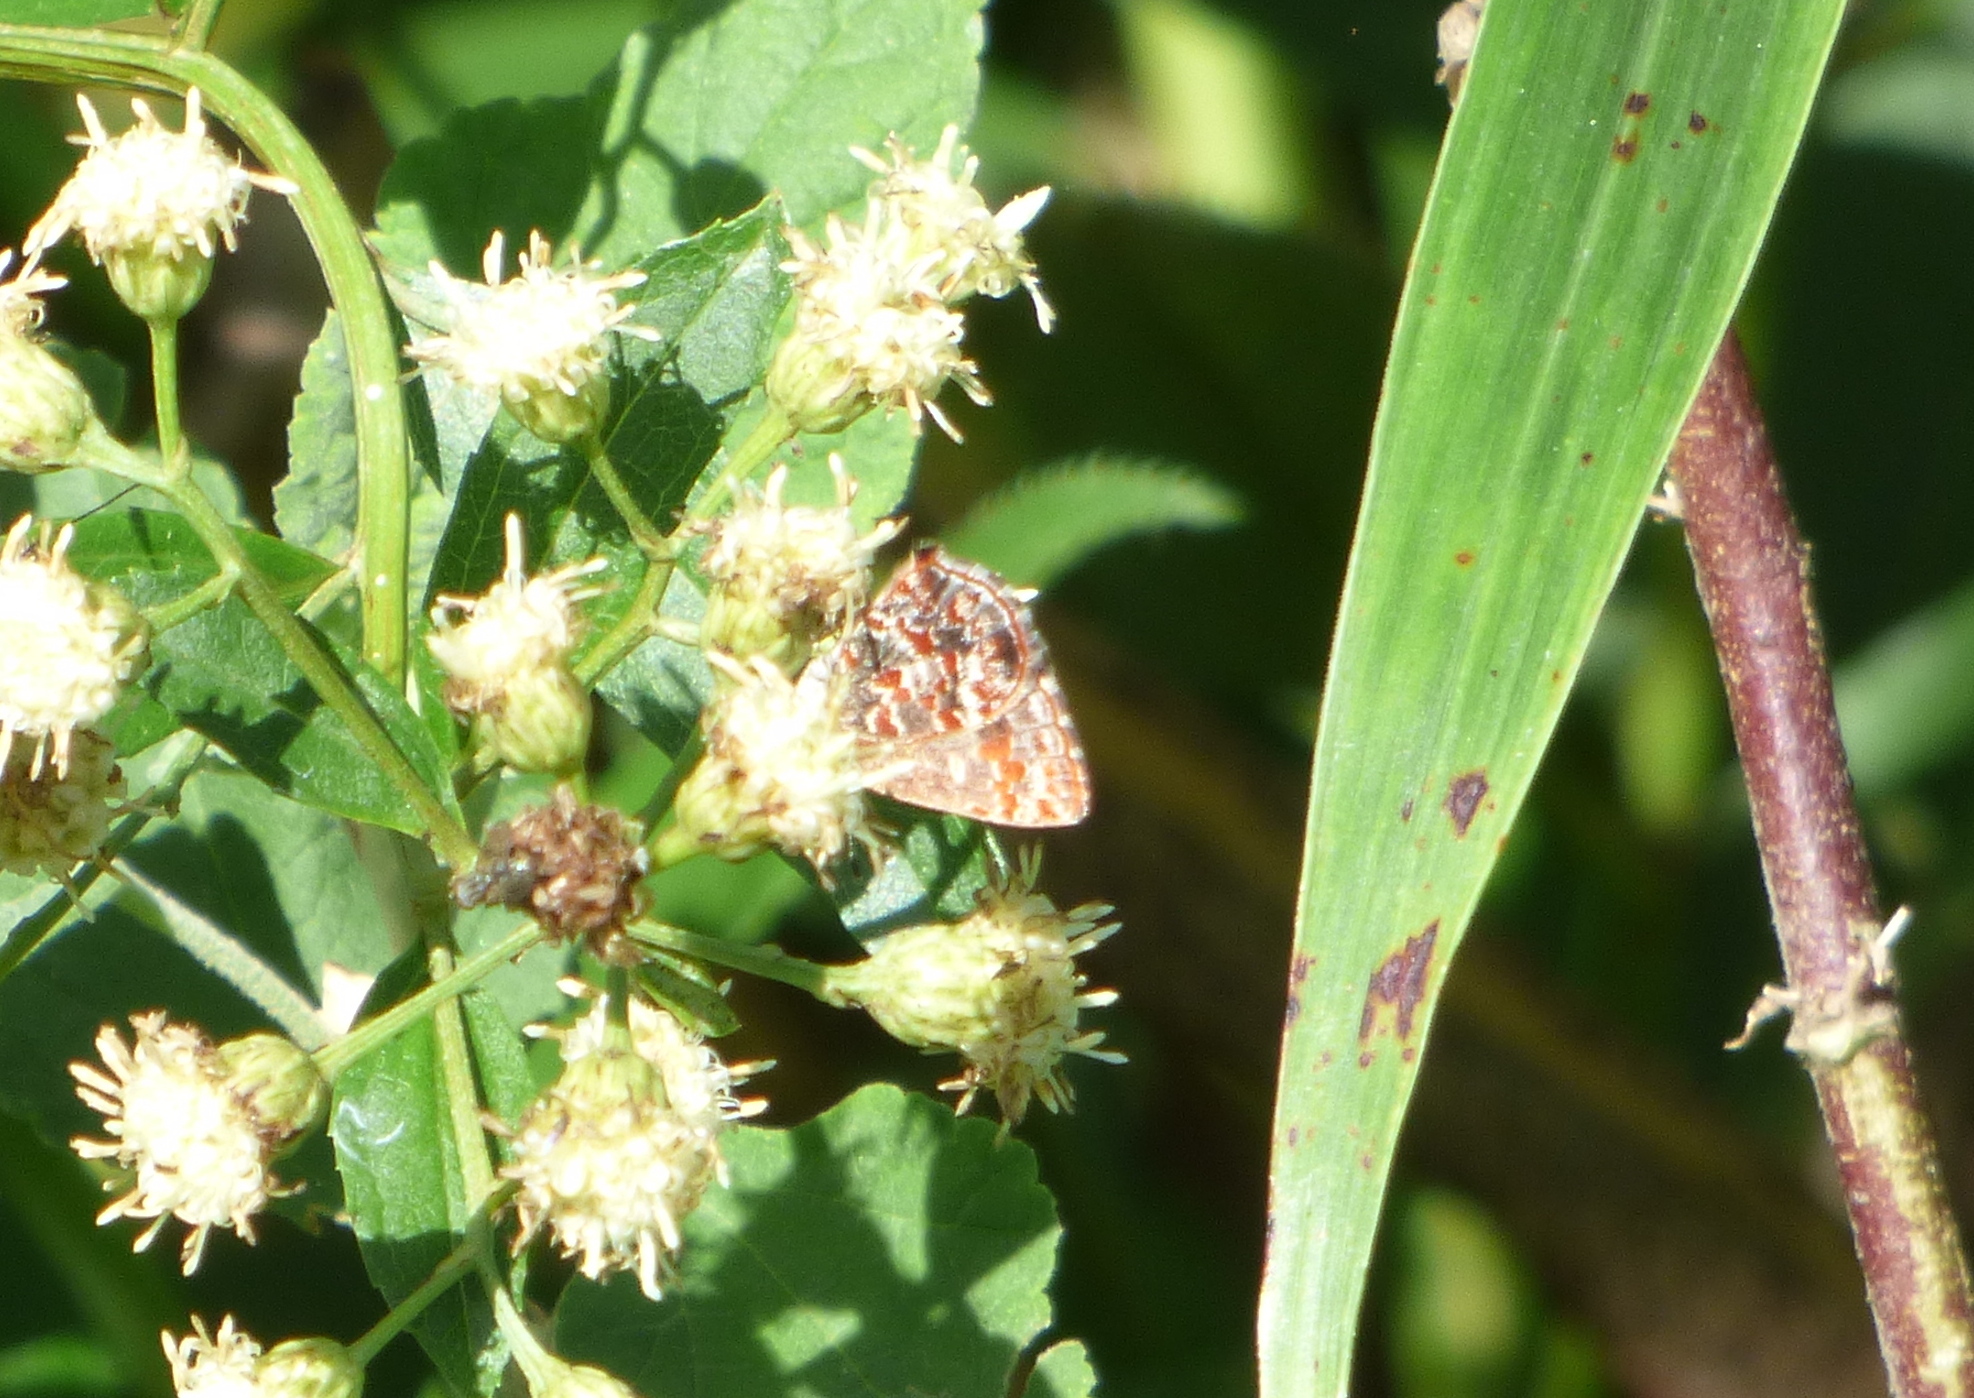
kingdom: Animalia
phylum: Arthropoda
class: Insecta
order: Lepidoptera
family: Lycaenidae
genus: Ministrymon
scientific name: Ministrymon
